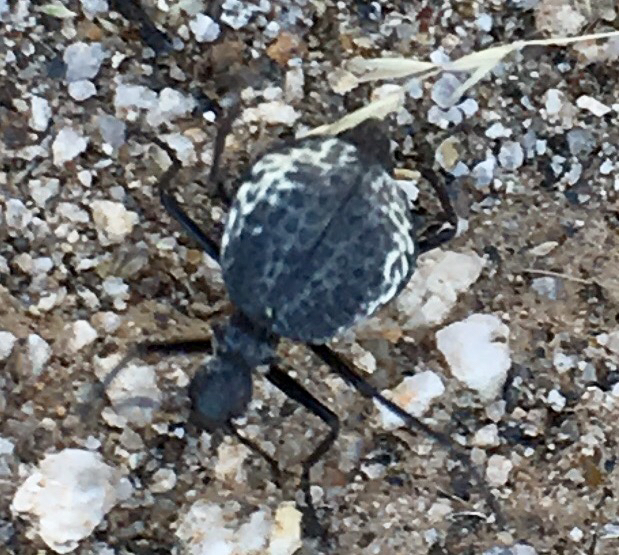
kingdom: Animalia
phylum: Arthropoda
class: Insecta
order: Coleoptera
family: Meloidae
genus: Cysteodemus
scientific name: Cysteodemus armatus
